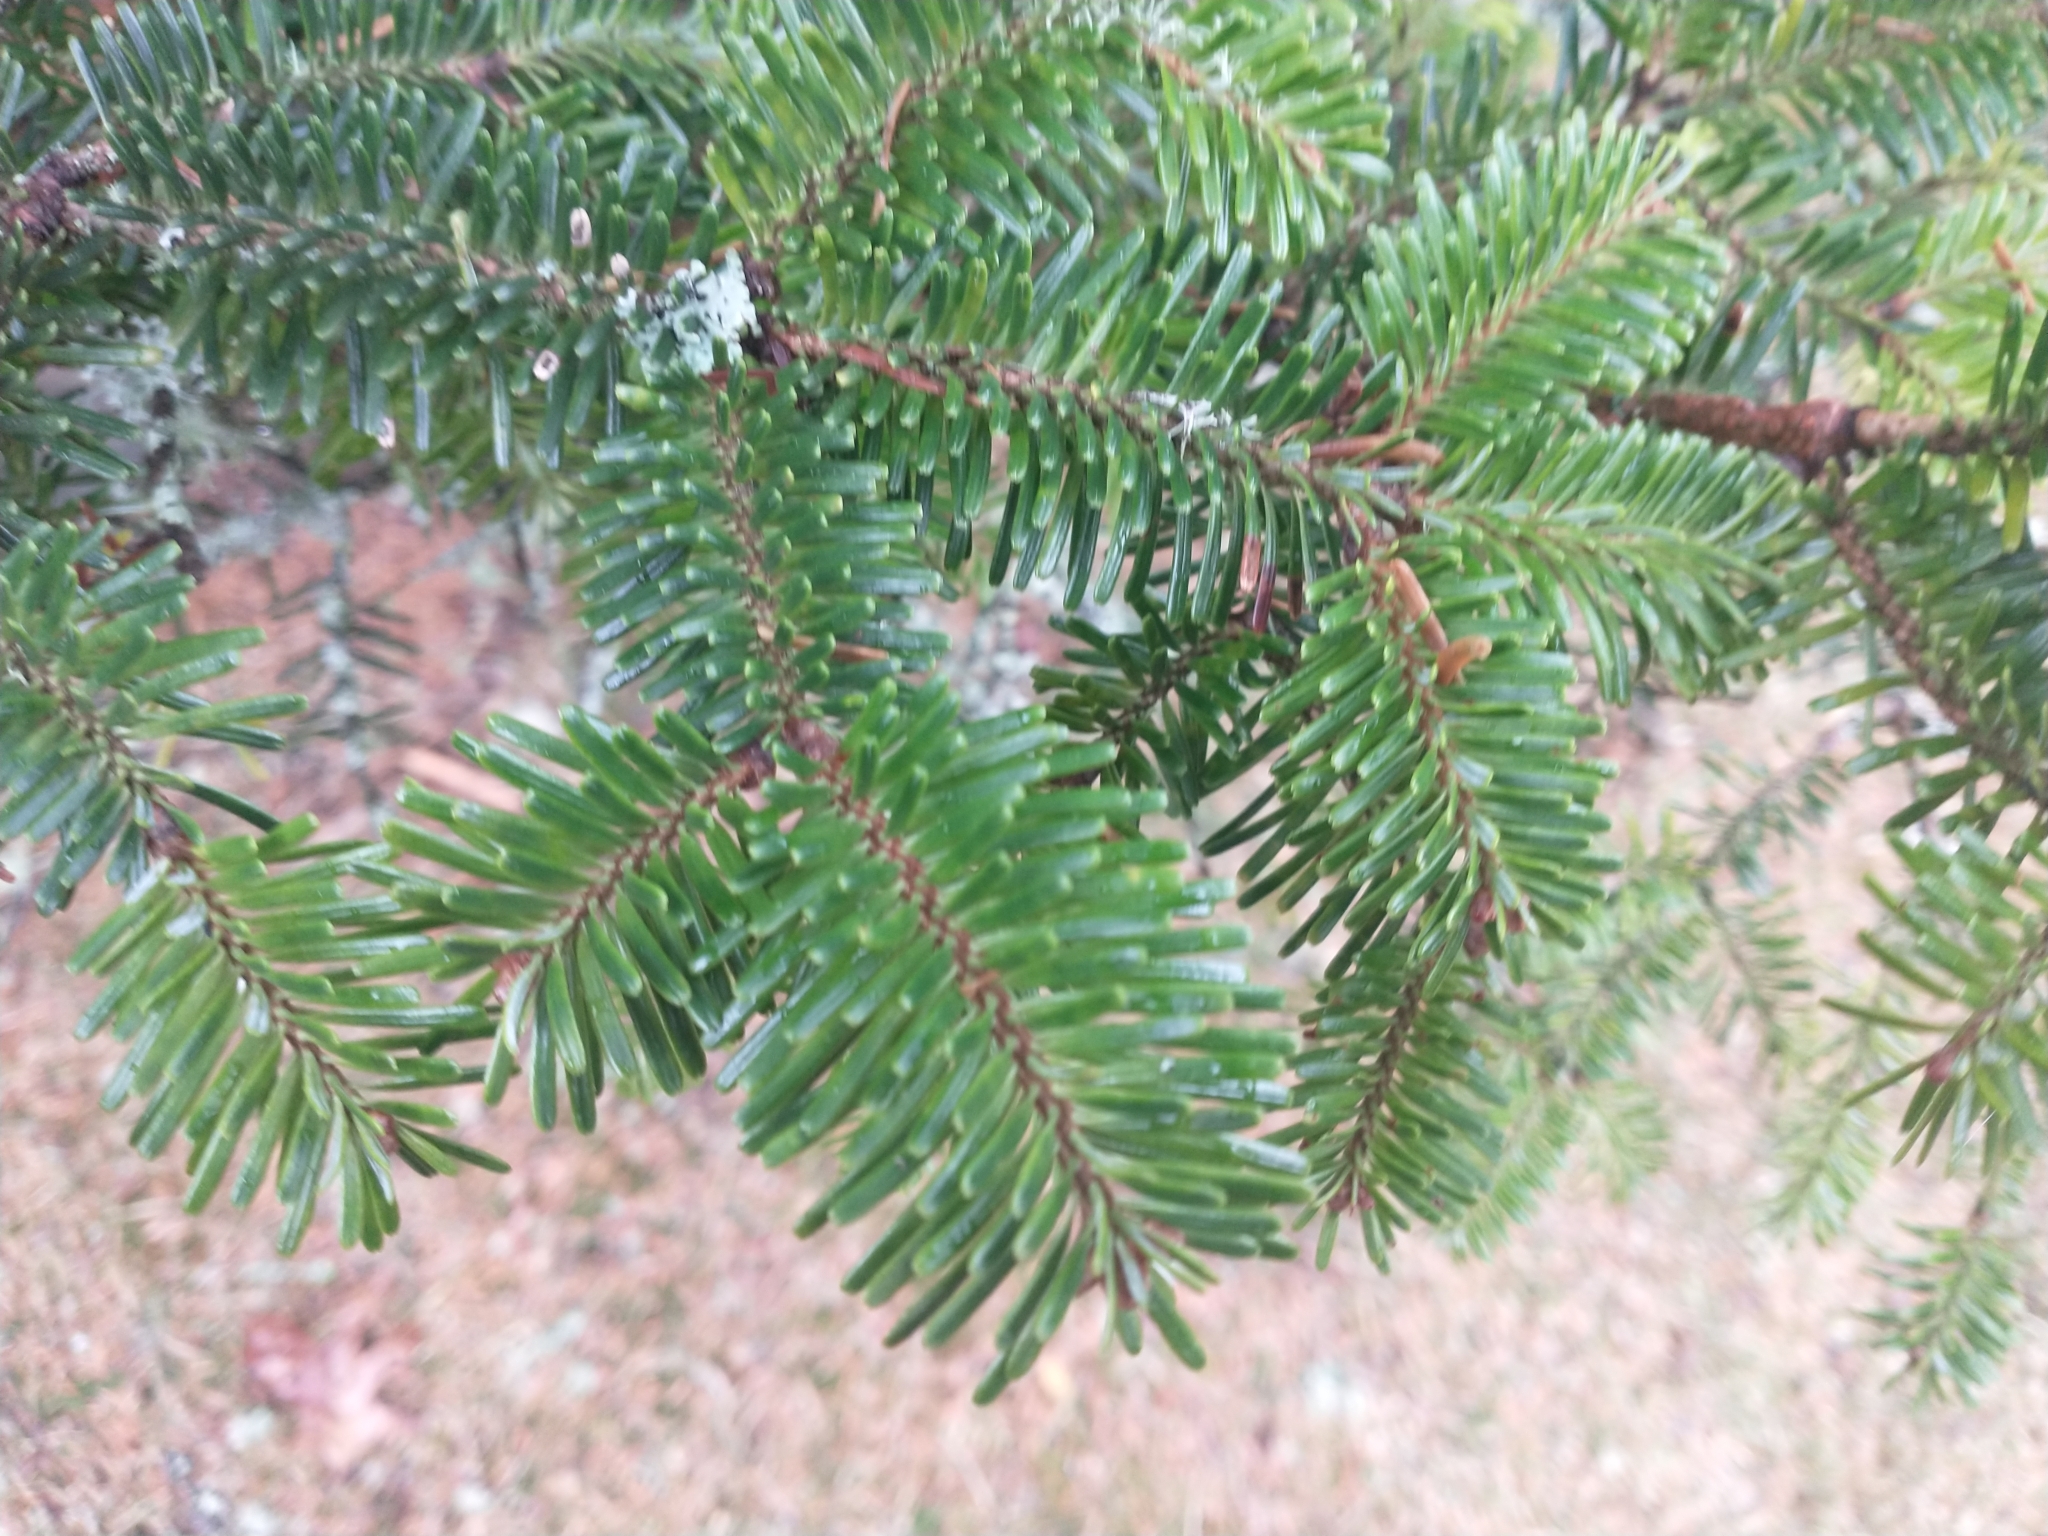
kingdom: Plantae
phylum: Tracheophyta
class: Pinopsida
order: Pinales
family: Pinaceae
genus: Abies
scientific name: Abies fraseri
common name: Fraser fir
